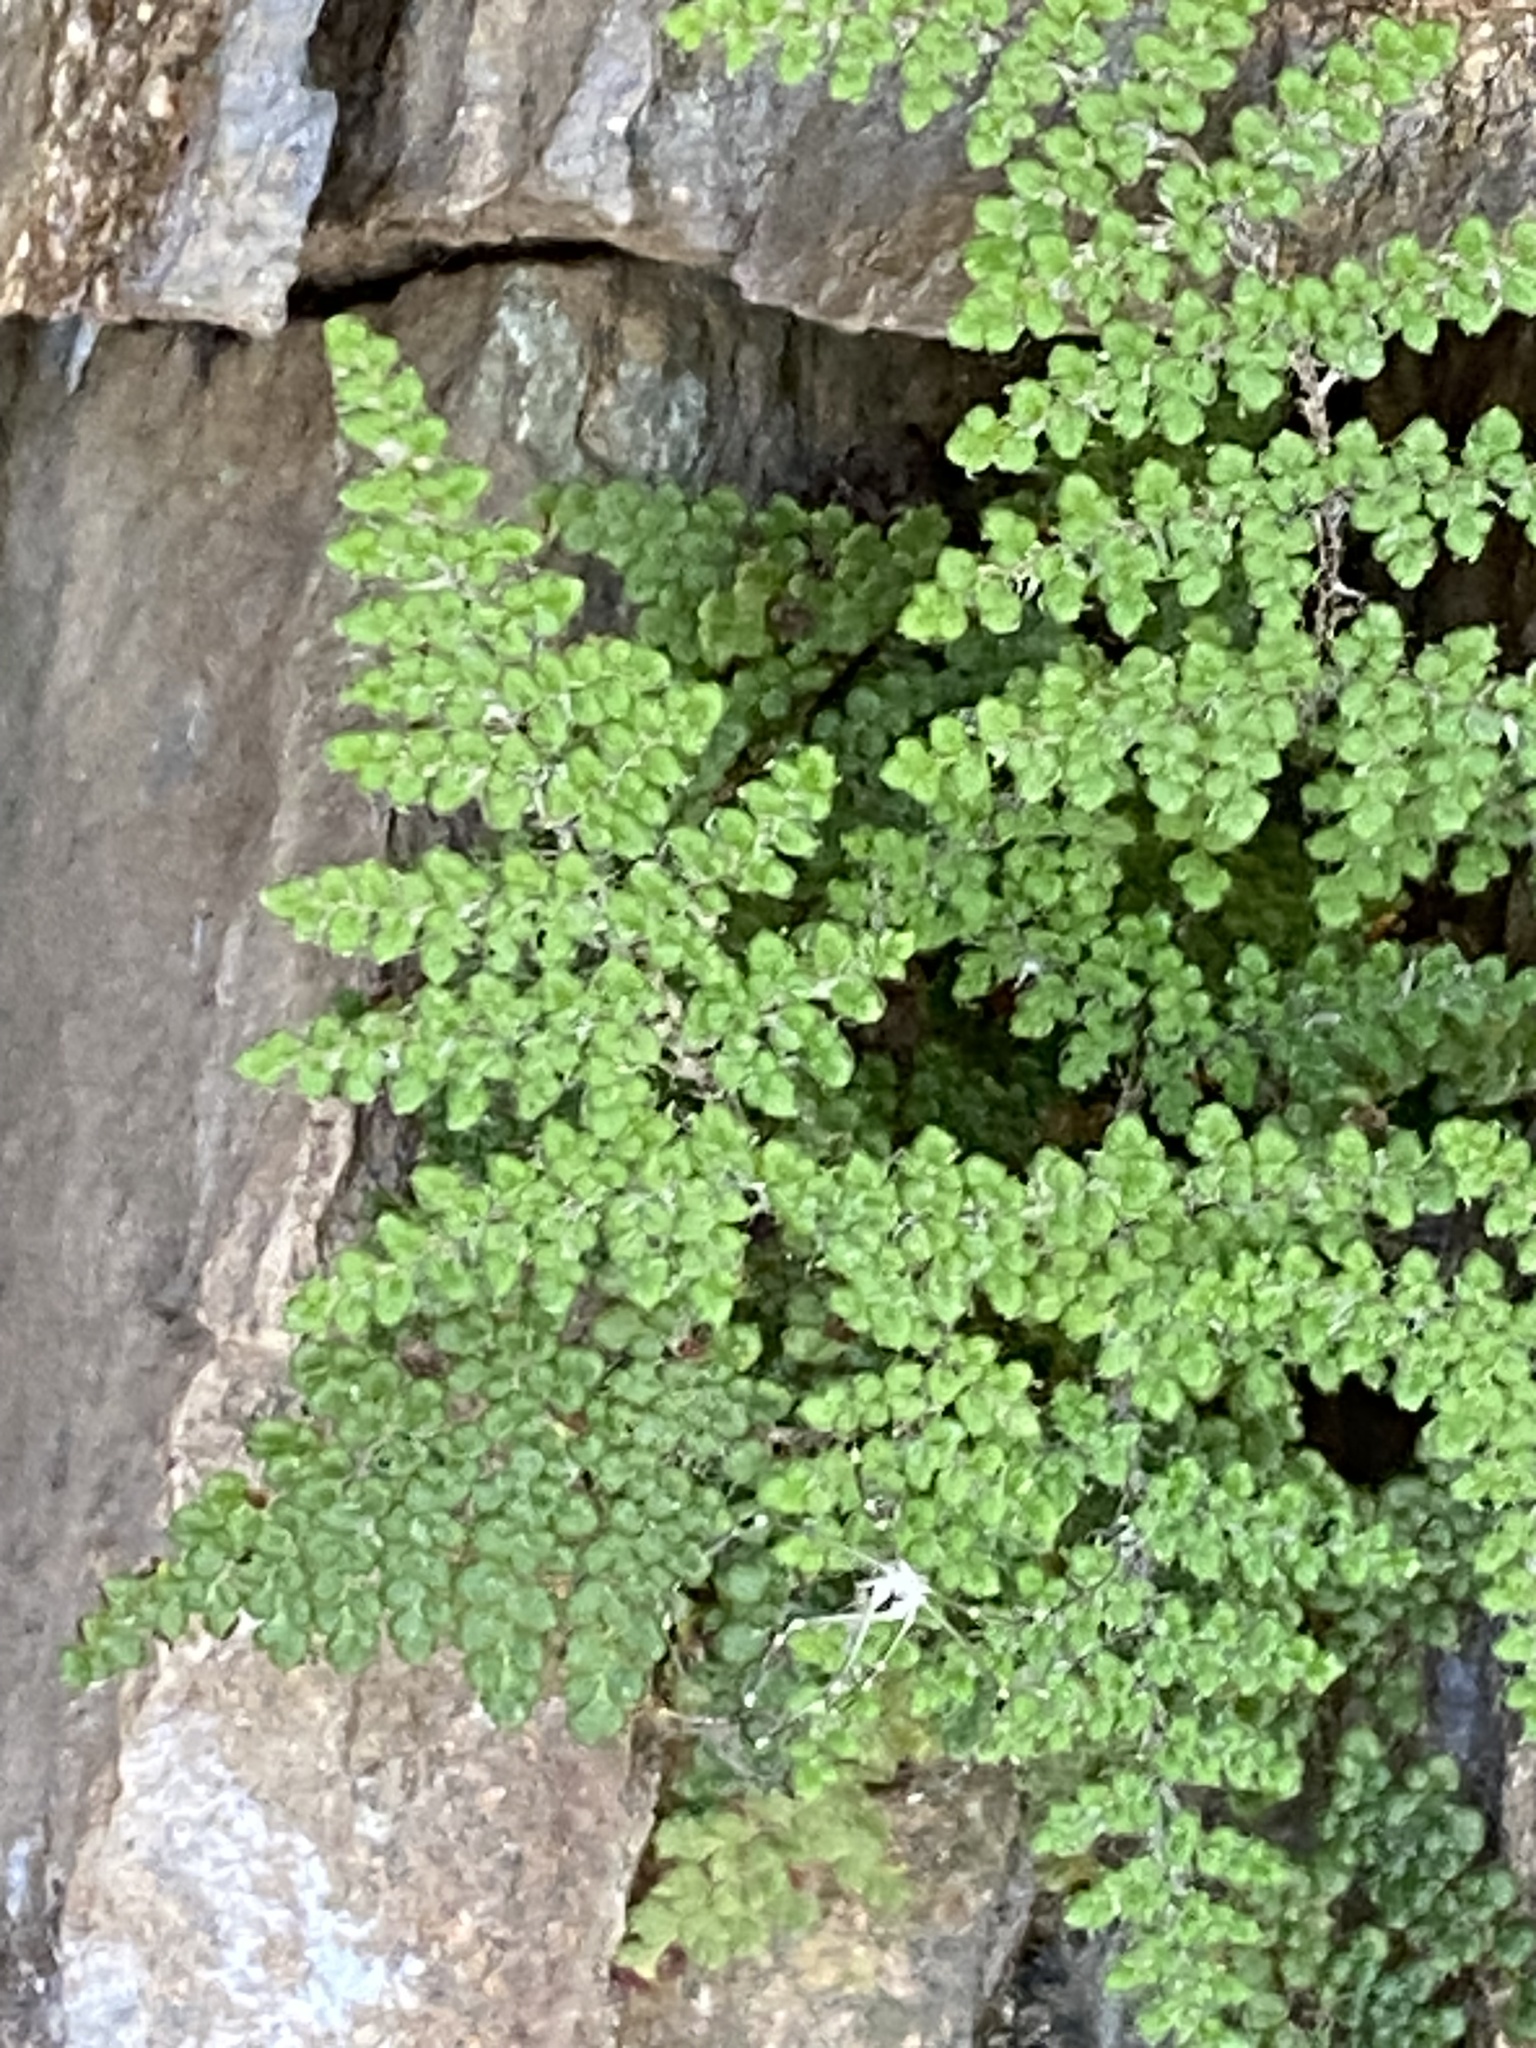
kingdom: Plantae
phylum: Tracheophyta
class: Polypodiopsida
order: Polypodiales
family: Pteridaceae
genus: Myriopteris
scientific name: Myriopteris covillei
